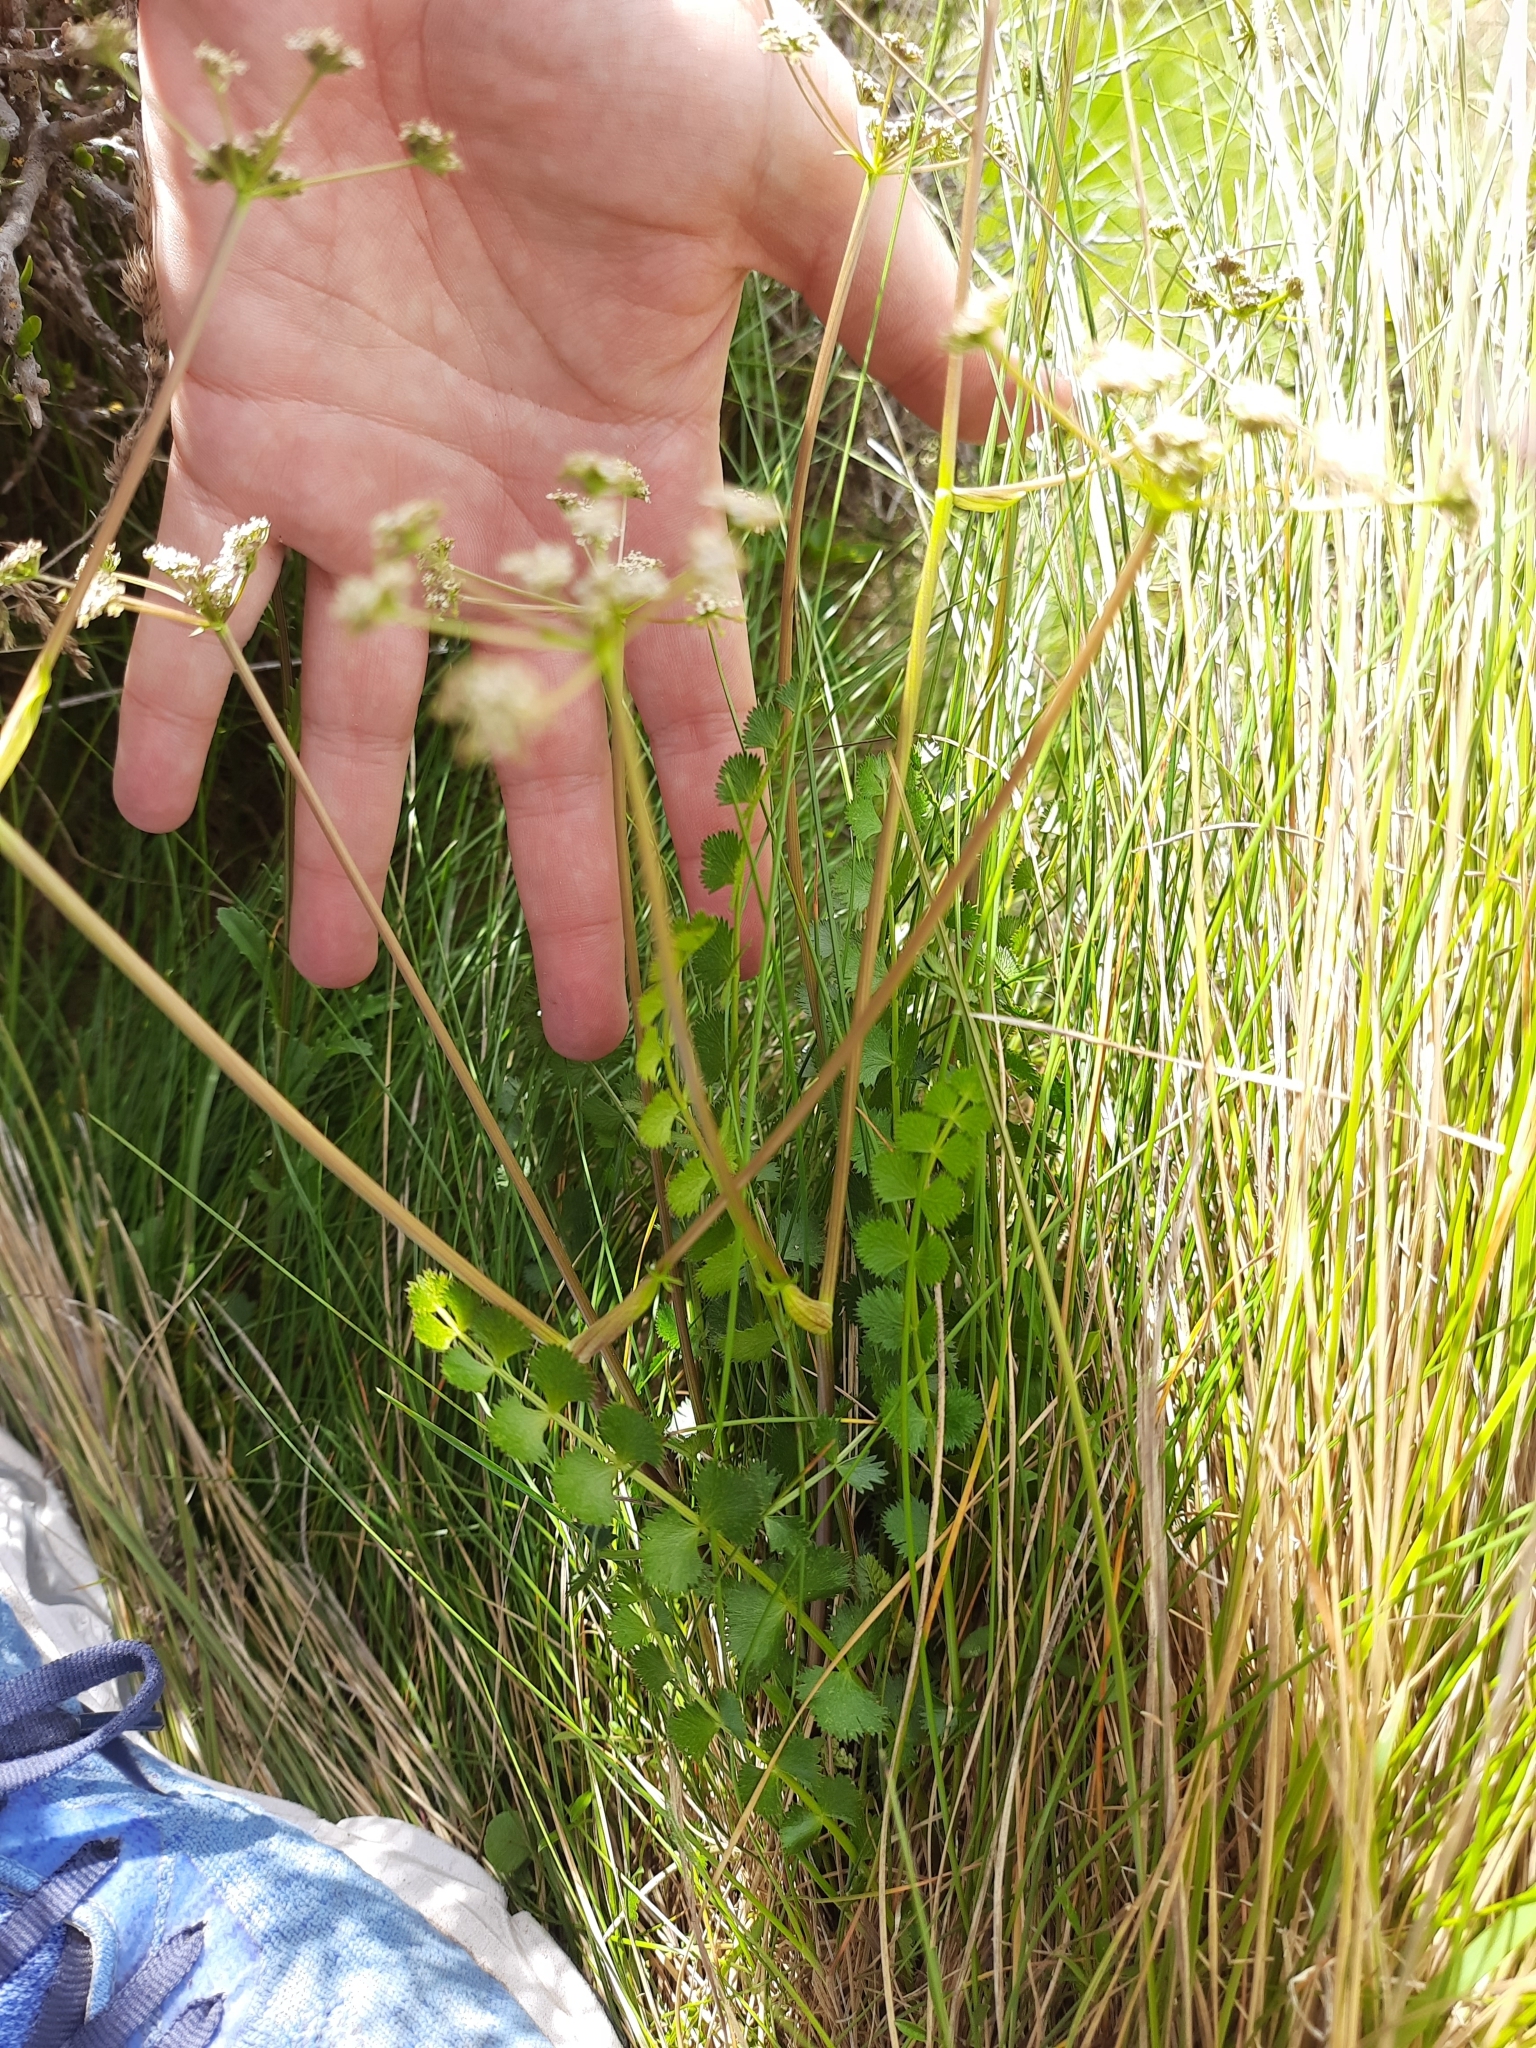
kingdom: Plantae
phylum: Tracheophyta
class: Magnoliopsida
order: Apiales
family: Apiaceae
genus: Anisotome
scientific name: Anisotome aromatica
